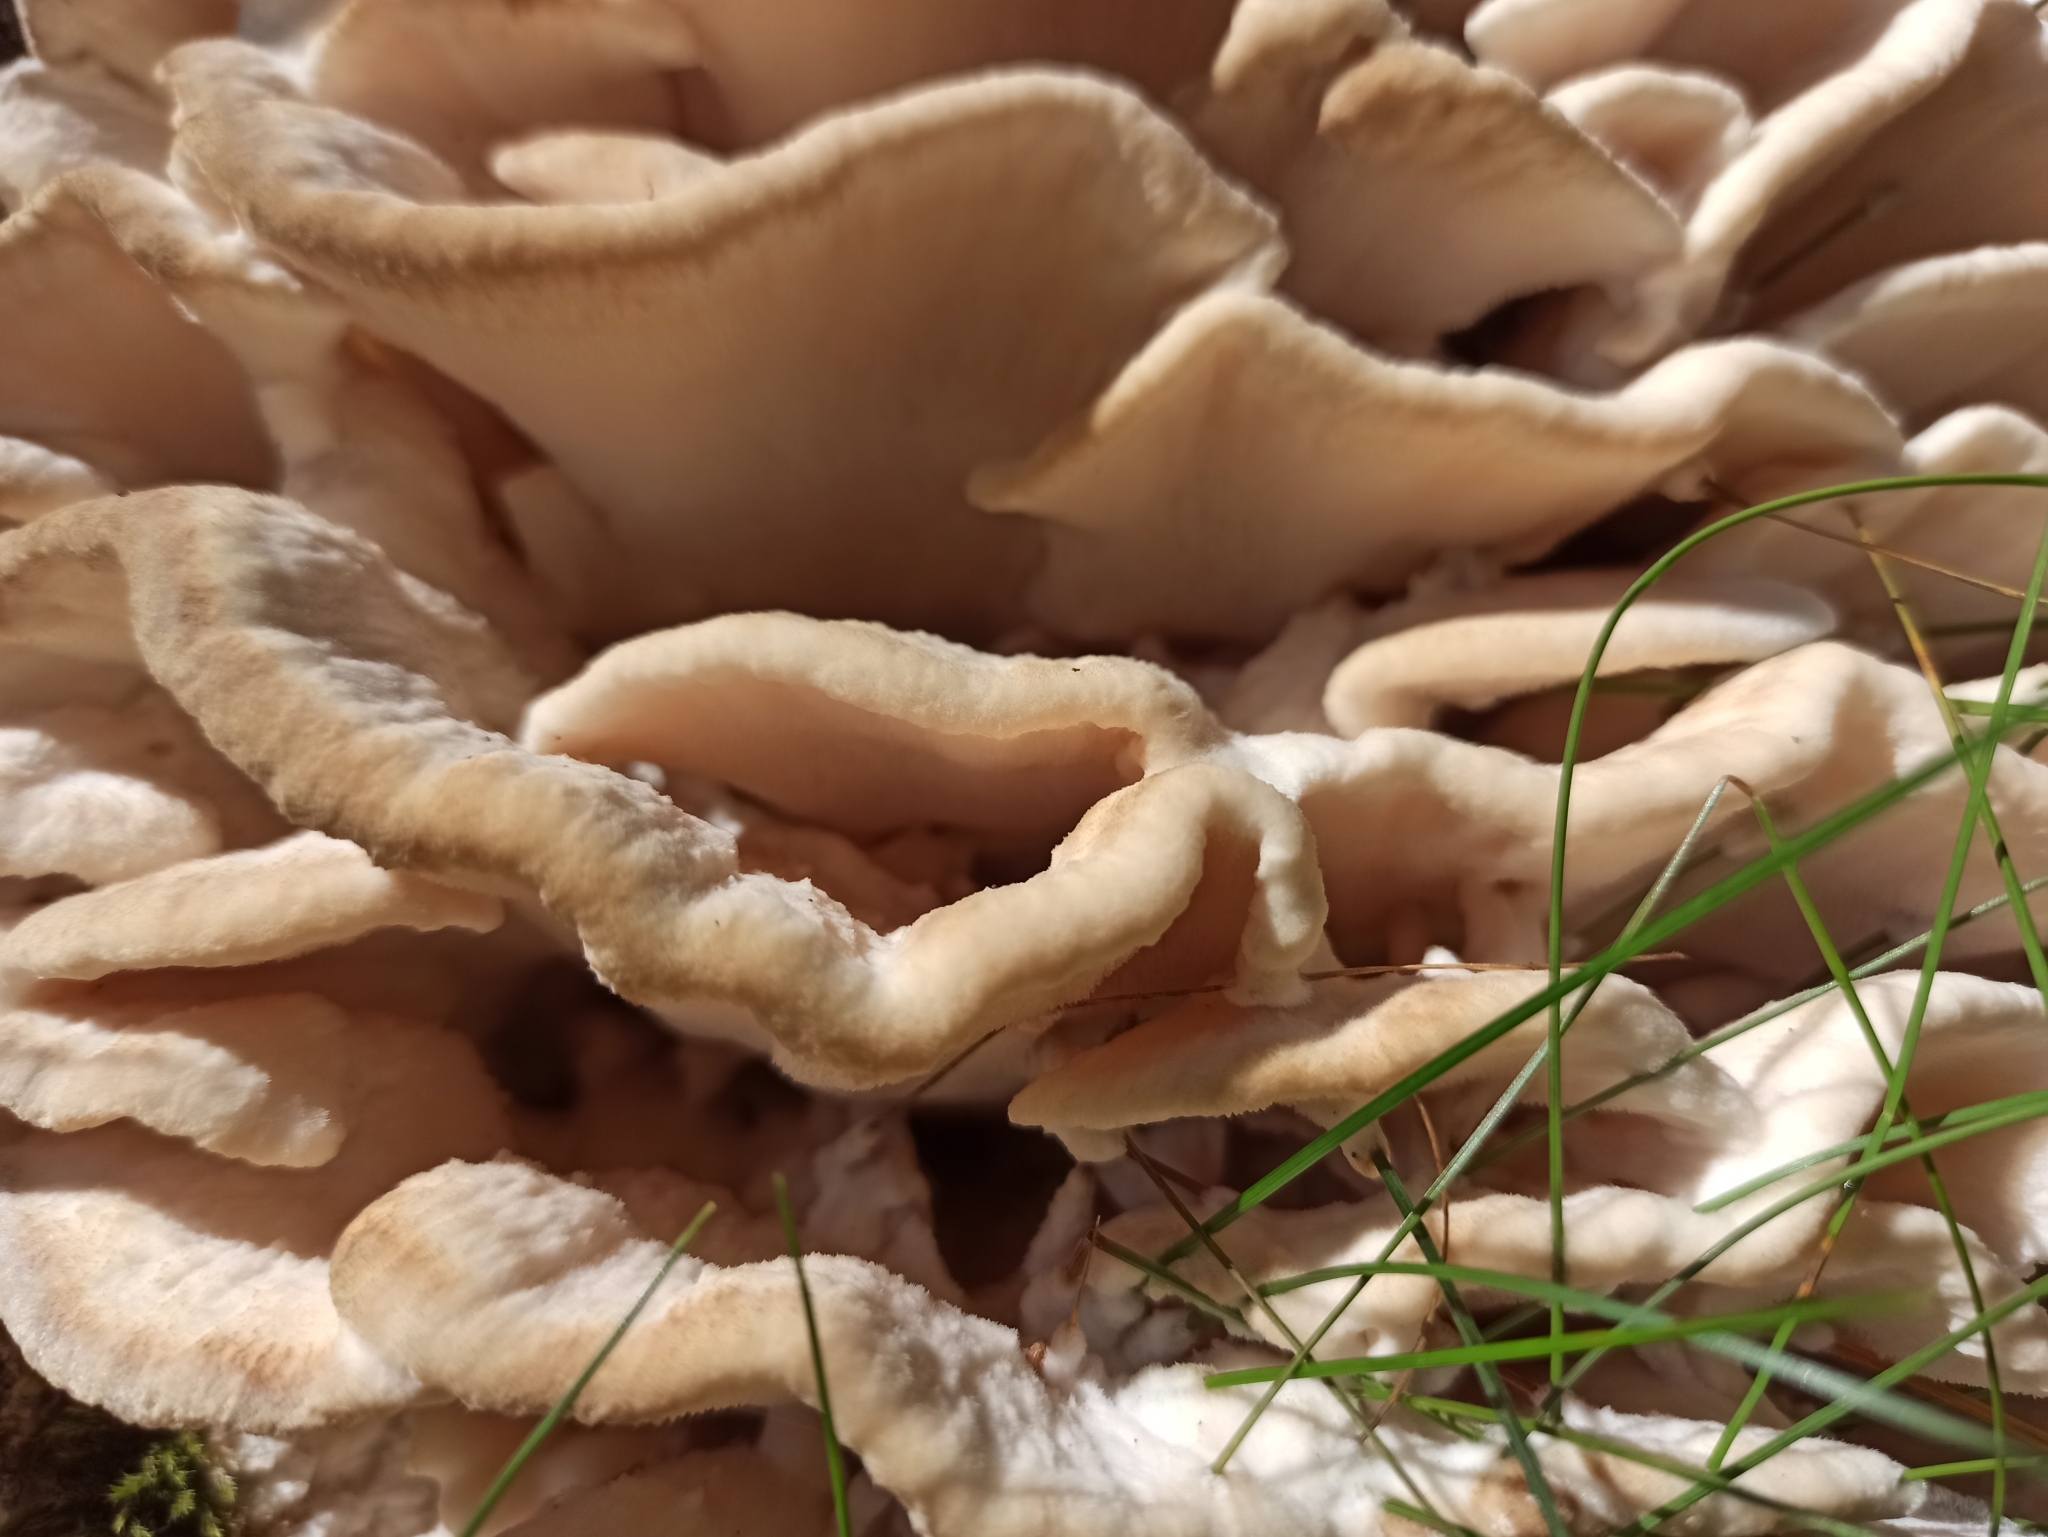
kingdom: Fungi
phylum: Basidiomycota
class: Agaricomycetes
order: Polyporales
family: Meruliaceae
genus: Climacodon
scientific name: Climacodon septentrionalis
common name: Northern tooth
